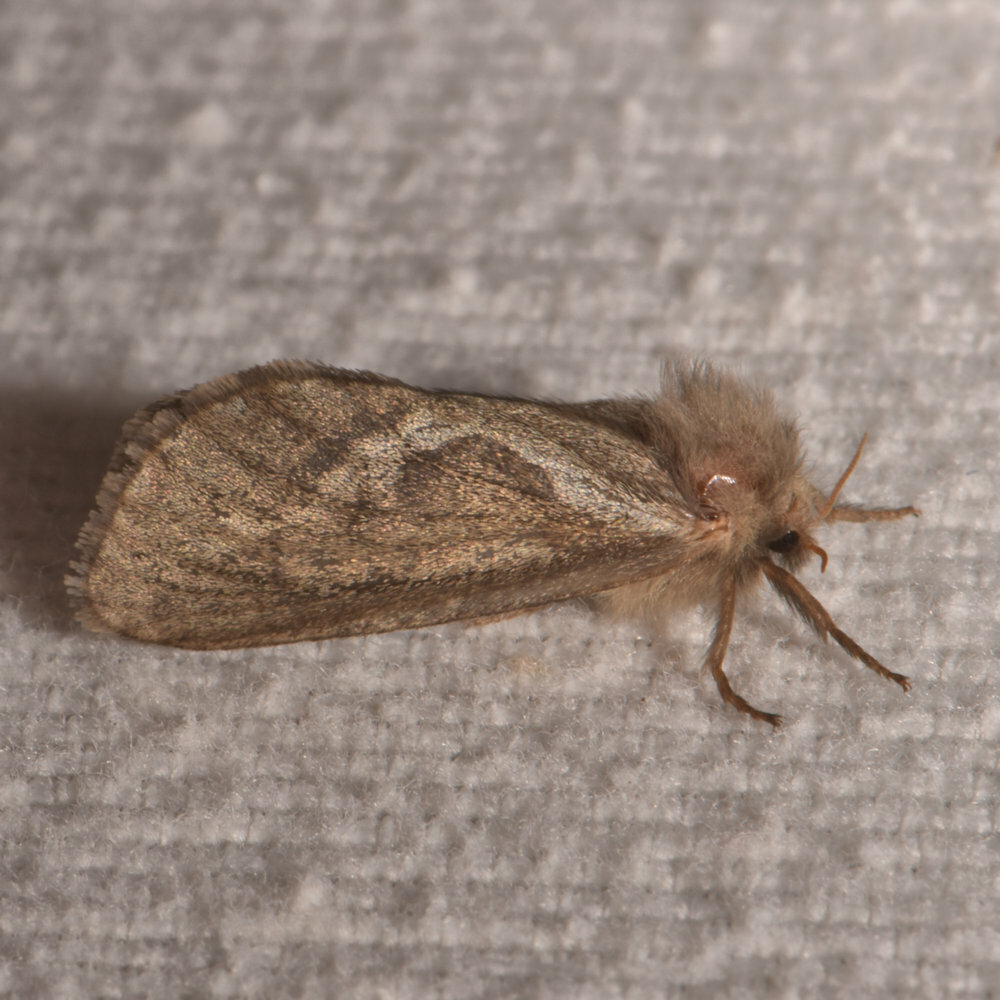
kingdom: Animalia
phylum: Arthropoda
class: Insecta
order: Lepidoptera
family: Hepialidae
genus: Korscheltellus
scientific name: Korscheltellus lupulina
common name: Common swift
